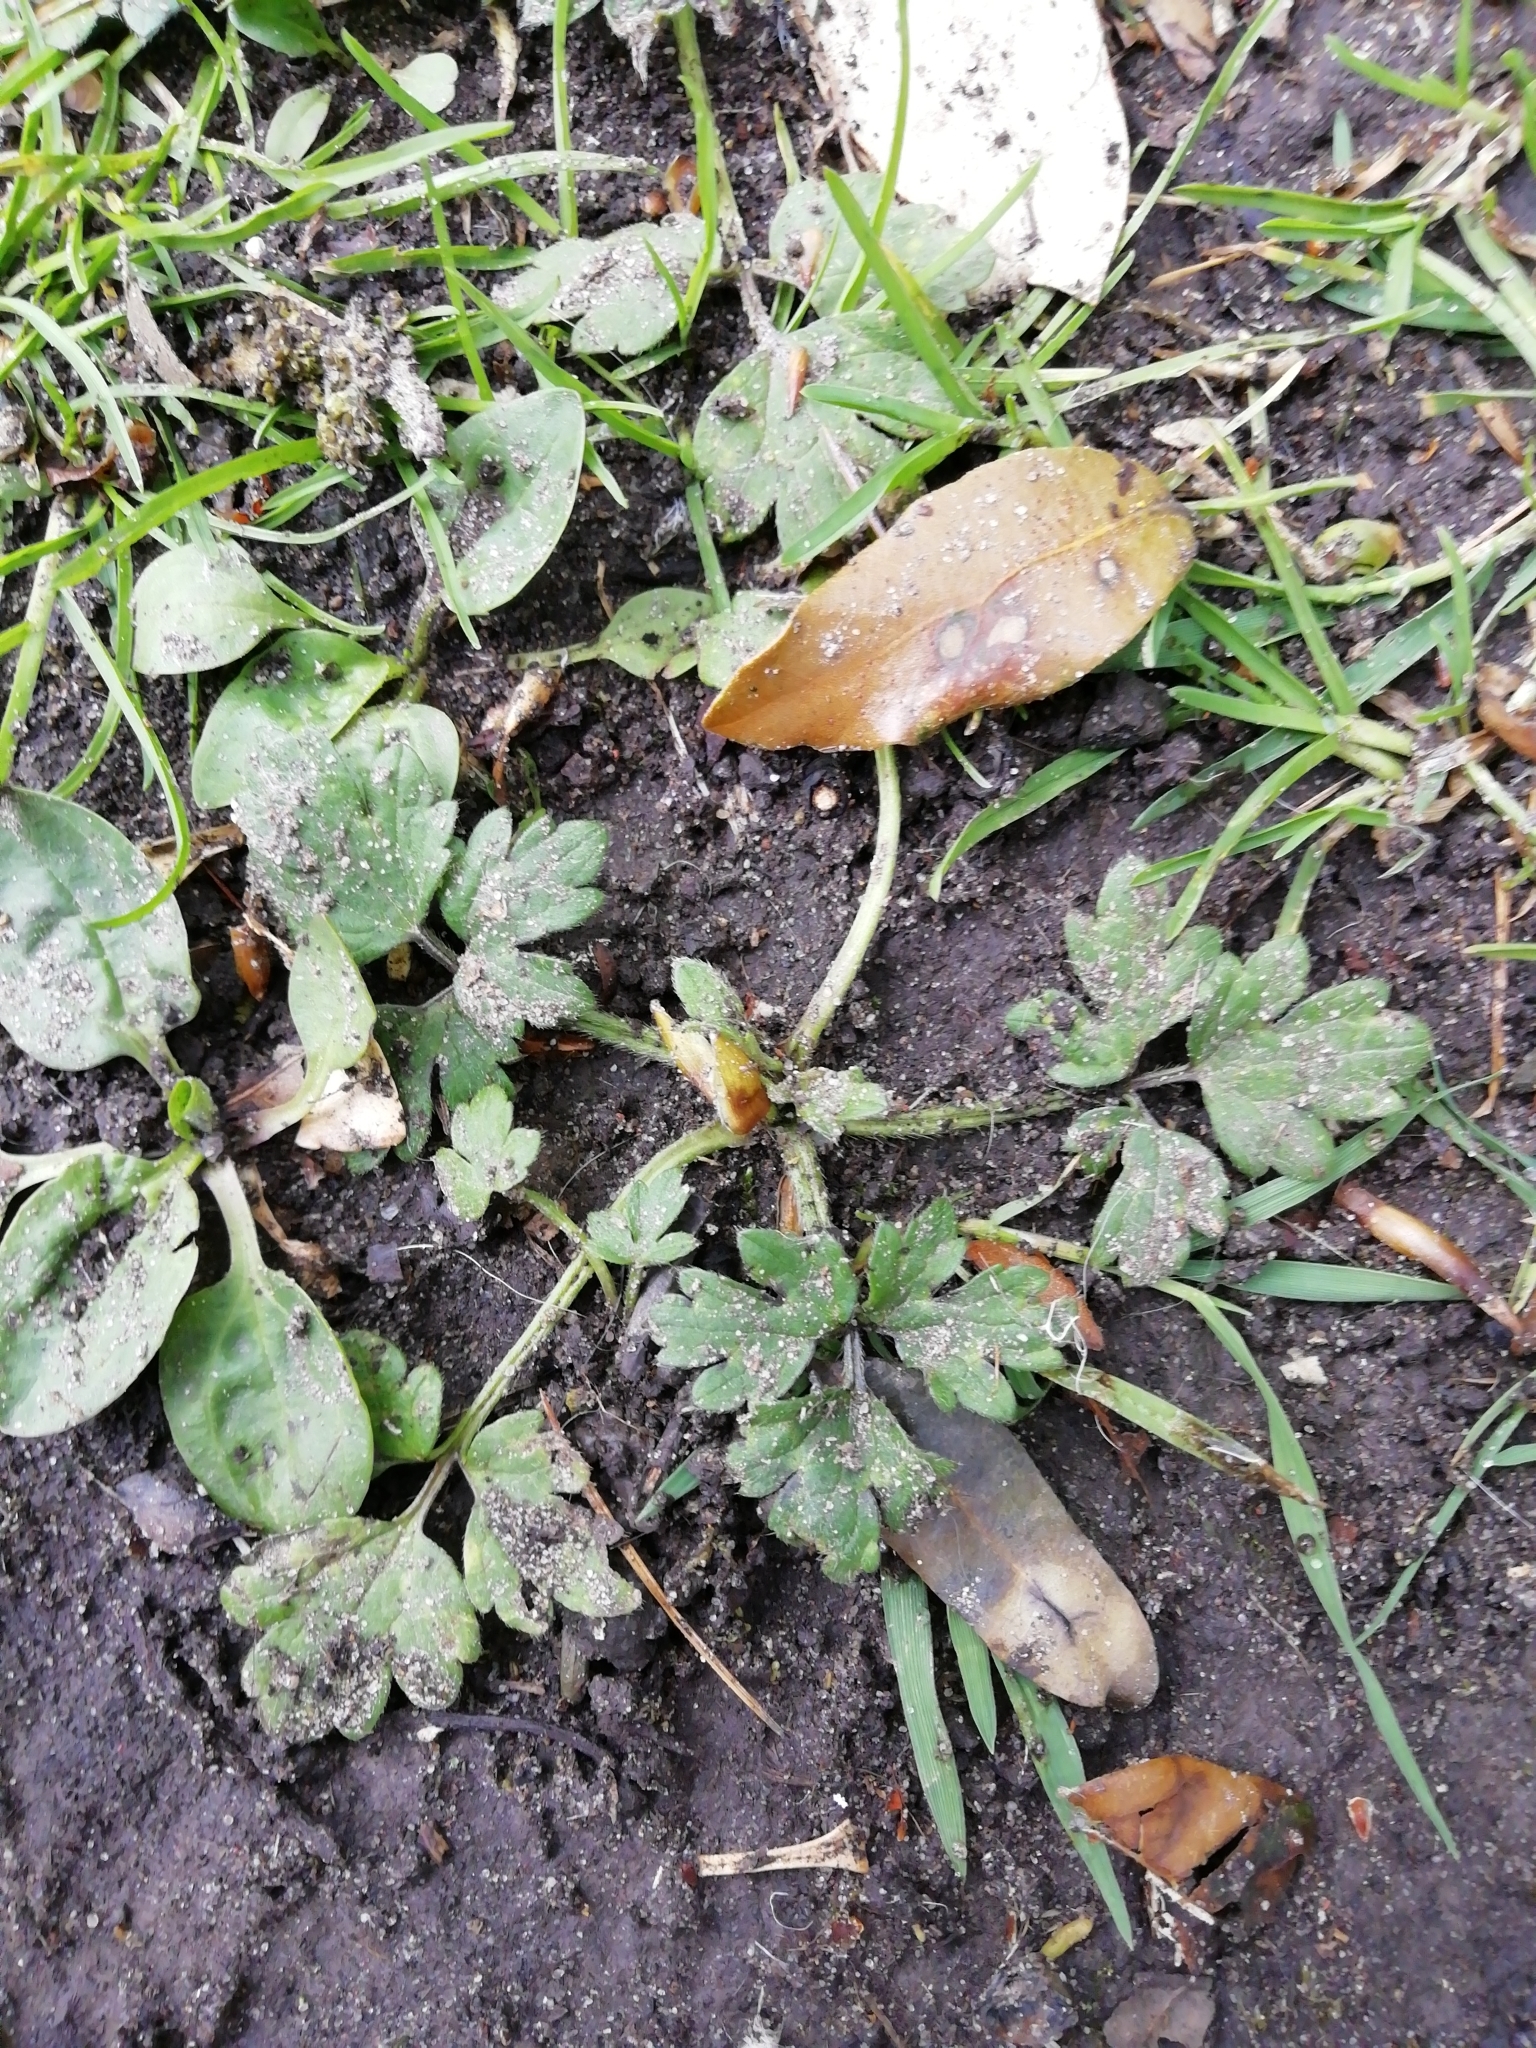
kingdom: Plantae
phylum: Tracheophyta
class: Magnoliopsida
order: Ranunculales
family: Ranunculaceae
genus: Ranunculus
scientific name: Ranunculus repens
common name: Creeping buttercup
